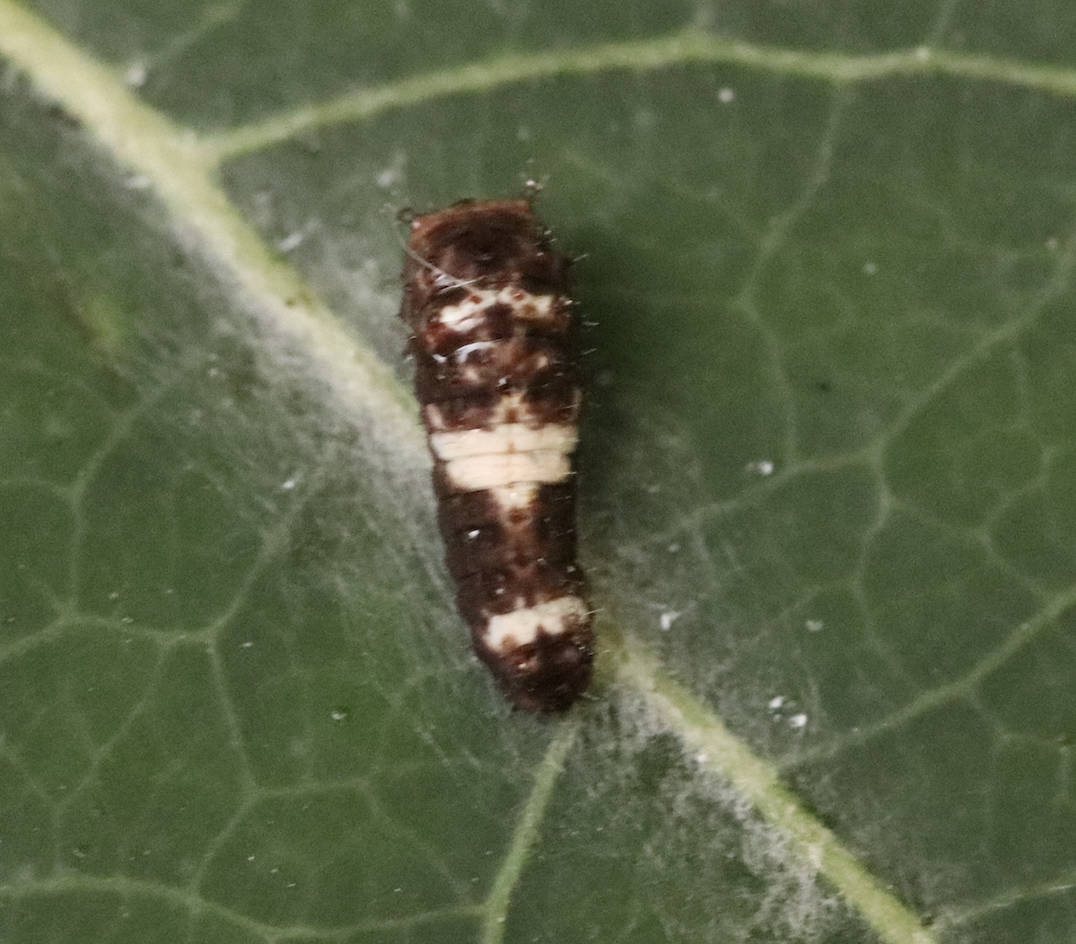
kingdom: Animalia
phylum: Arthropoda
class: Insecta
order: Lepidoptera
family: Papilionidae
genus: Papilio
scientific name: Papilio canadensis
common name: Canadian tiger swallowtail
